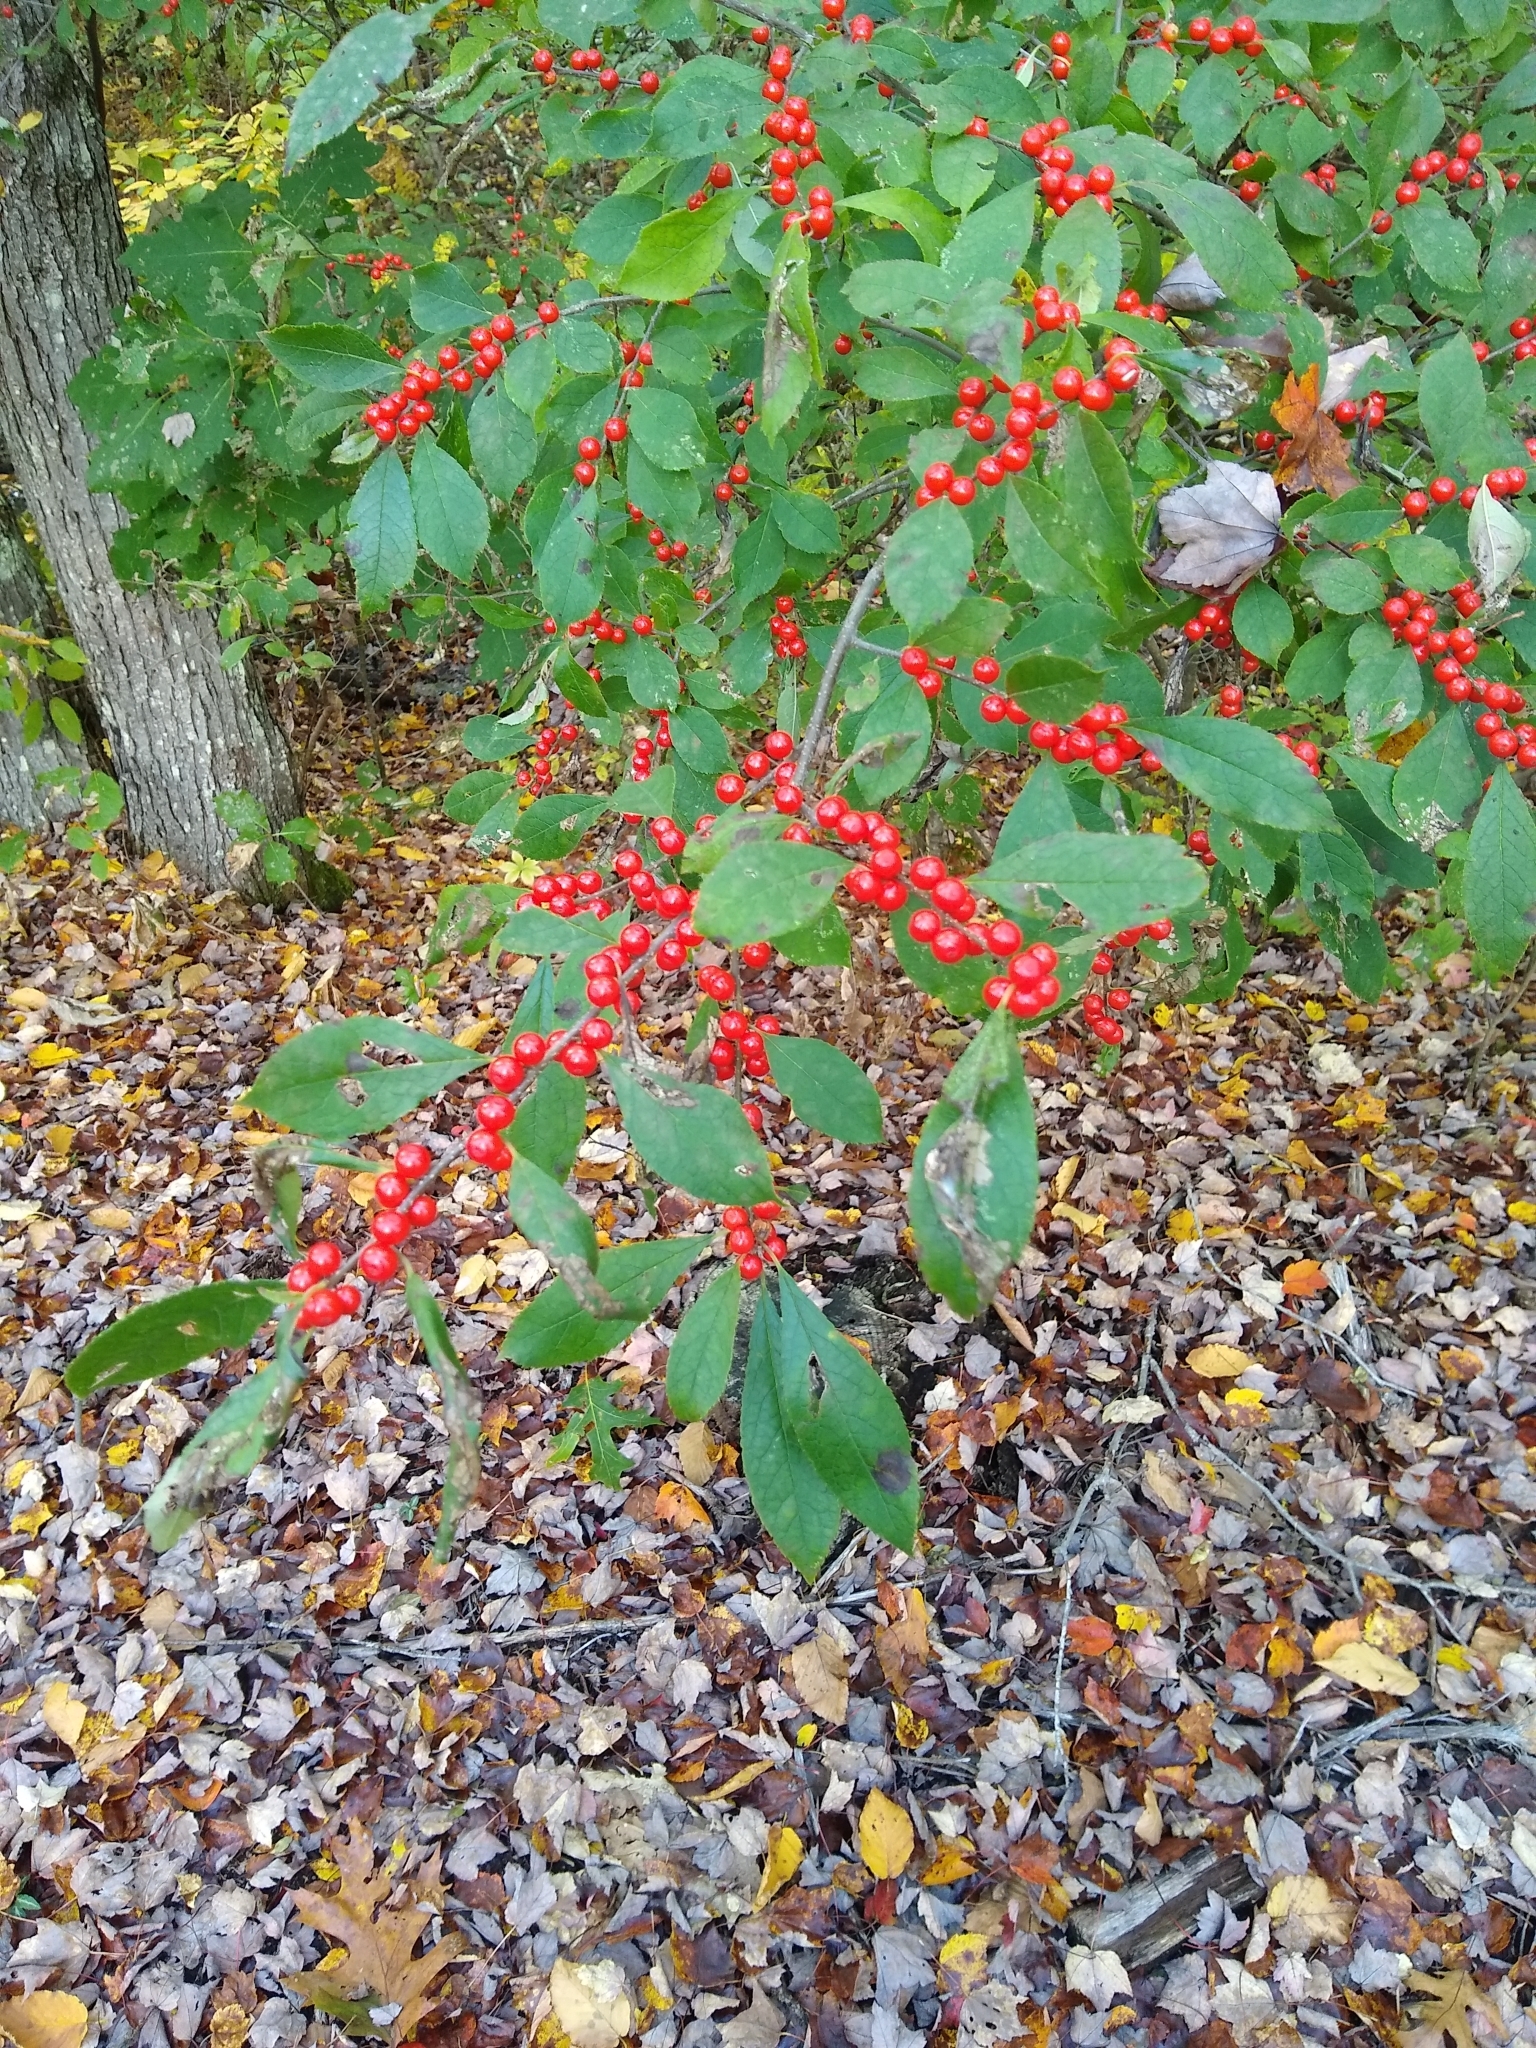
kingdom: Plantae
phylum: Tracheophyta
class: Magnoliopsida
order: Aquifoliales
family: Aquifoliaceae
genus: Ilex
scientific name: Ilex verticillata
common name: Virginia winterberry
